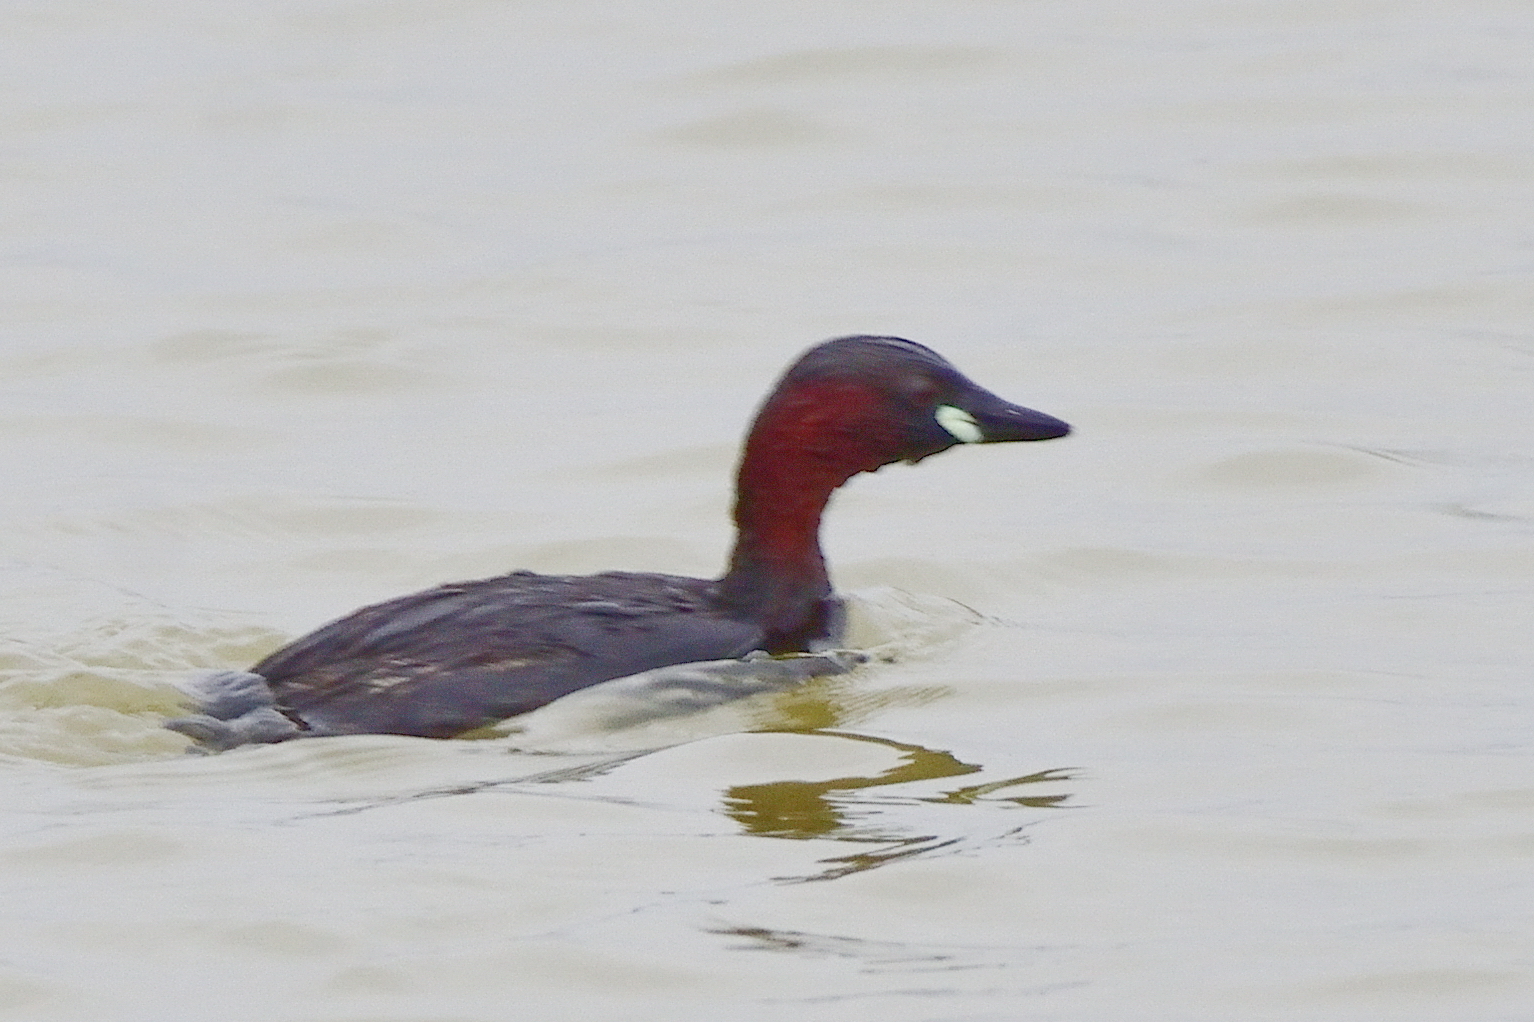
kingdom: Animalia
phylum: Chordata
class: Aves
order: Podicipediformes
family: Podicipedidae
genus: Tachybaptus
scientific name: Tachybaptus ruficollis
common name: Little grebe
